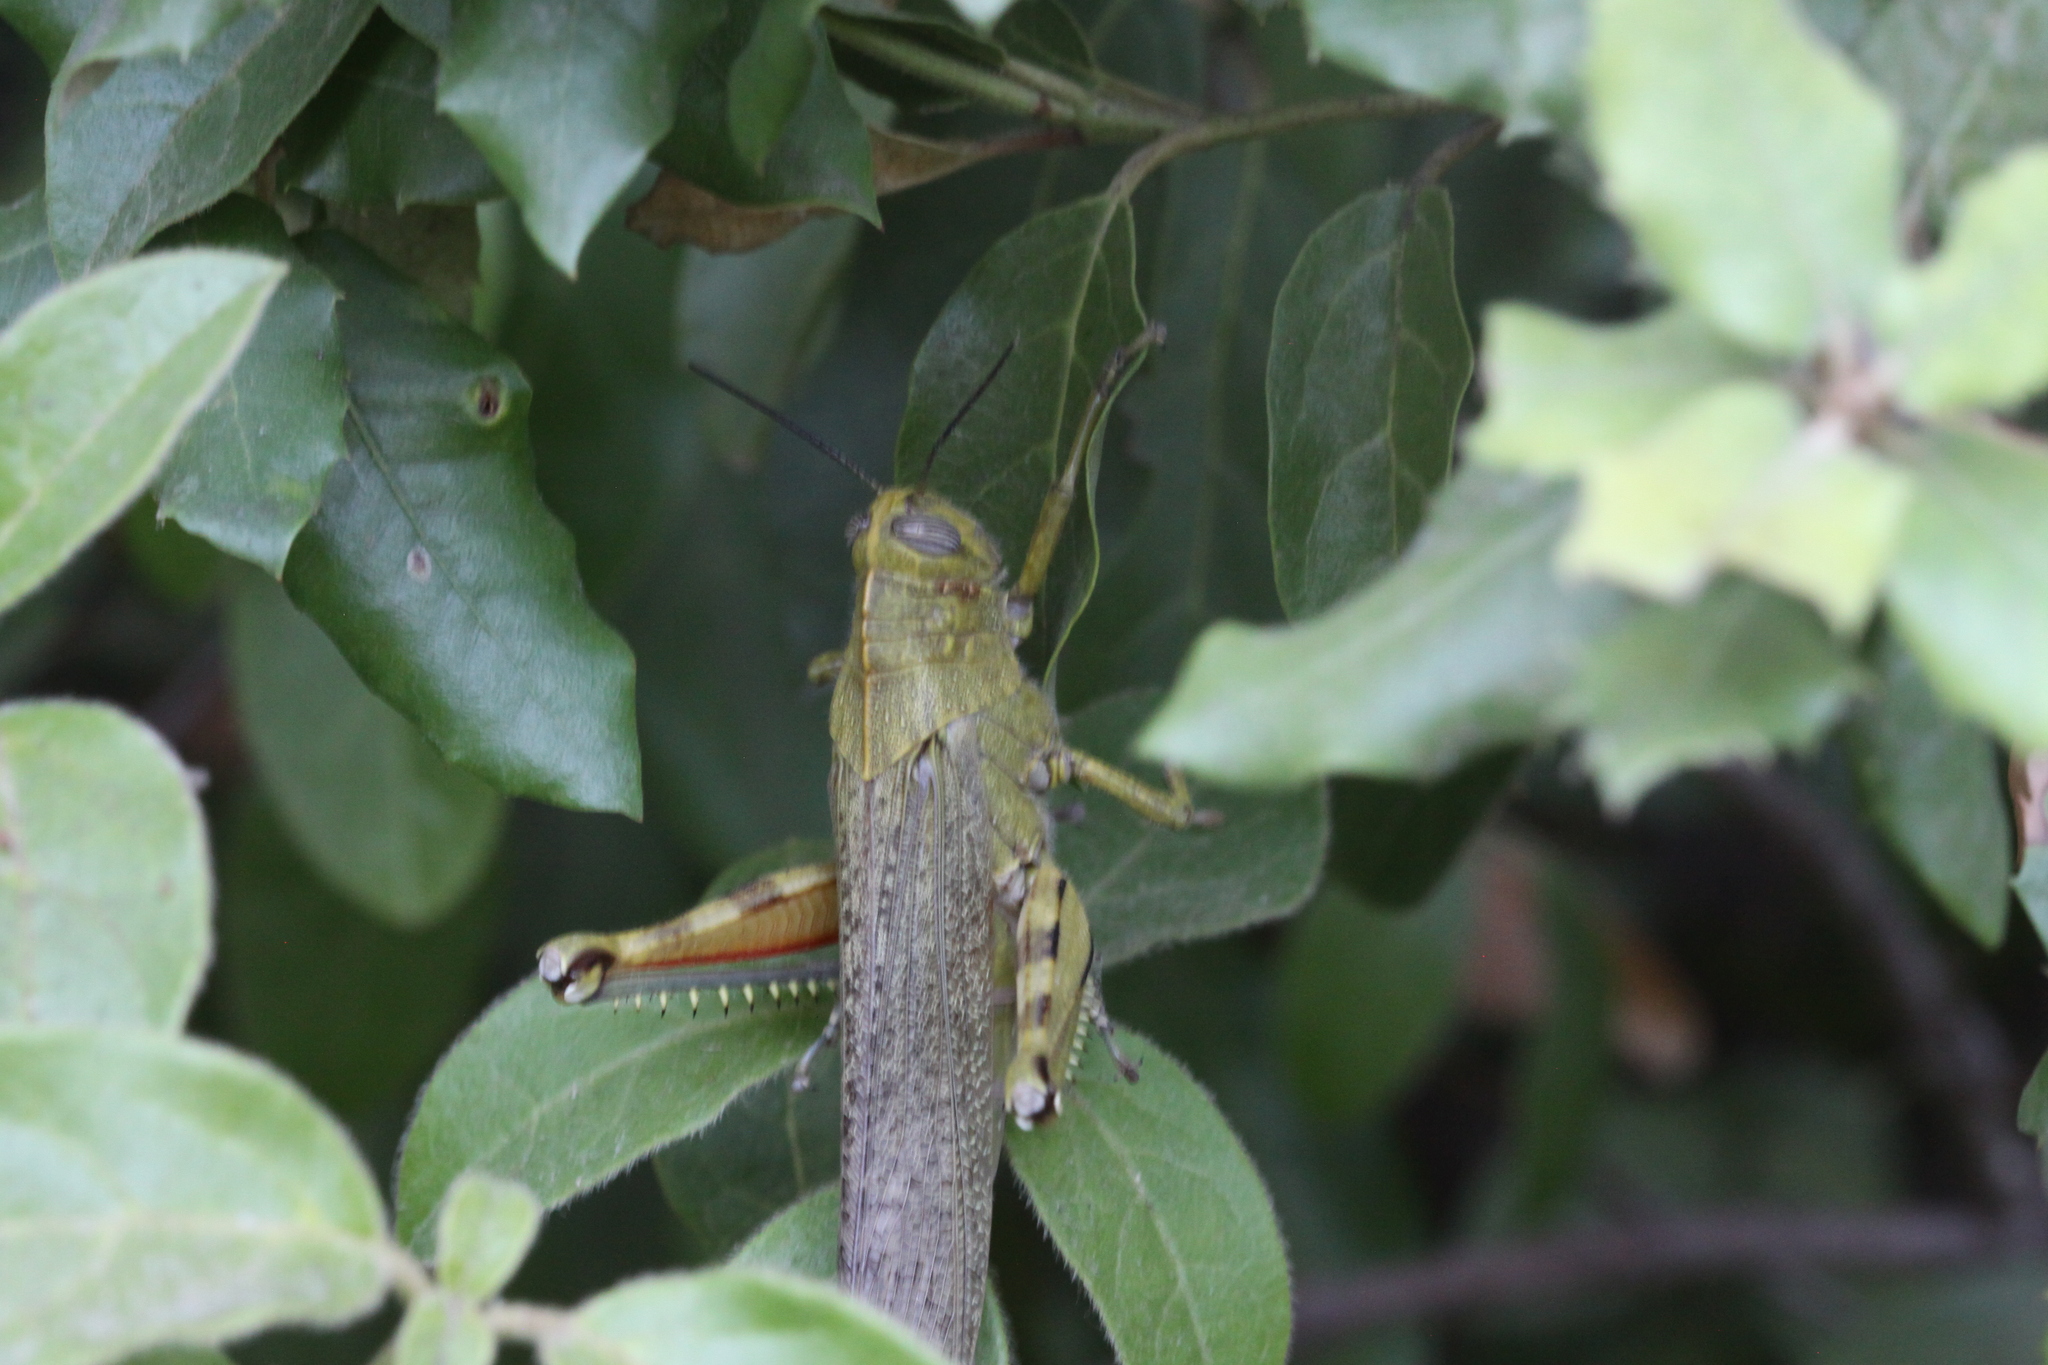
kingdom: Animalia
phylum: Arthropoda
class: Insecta
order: Orthoptera
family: Acrididae
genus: Anacridium
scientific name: Anacridium aegyptium
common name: Egyptian grasshopper
